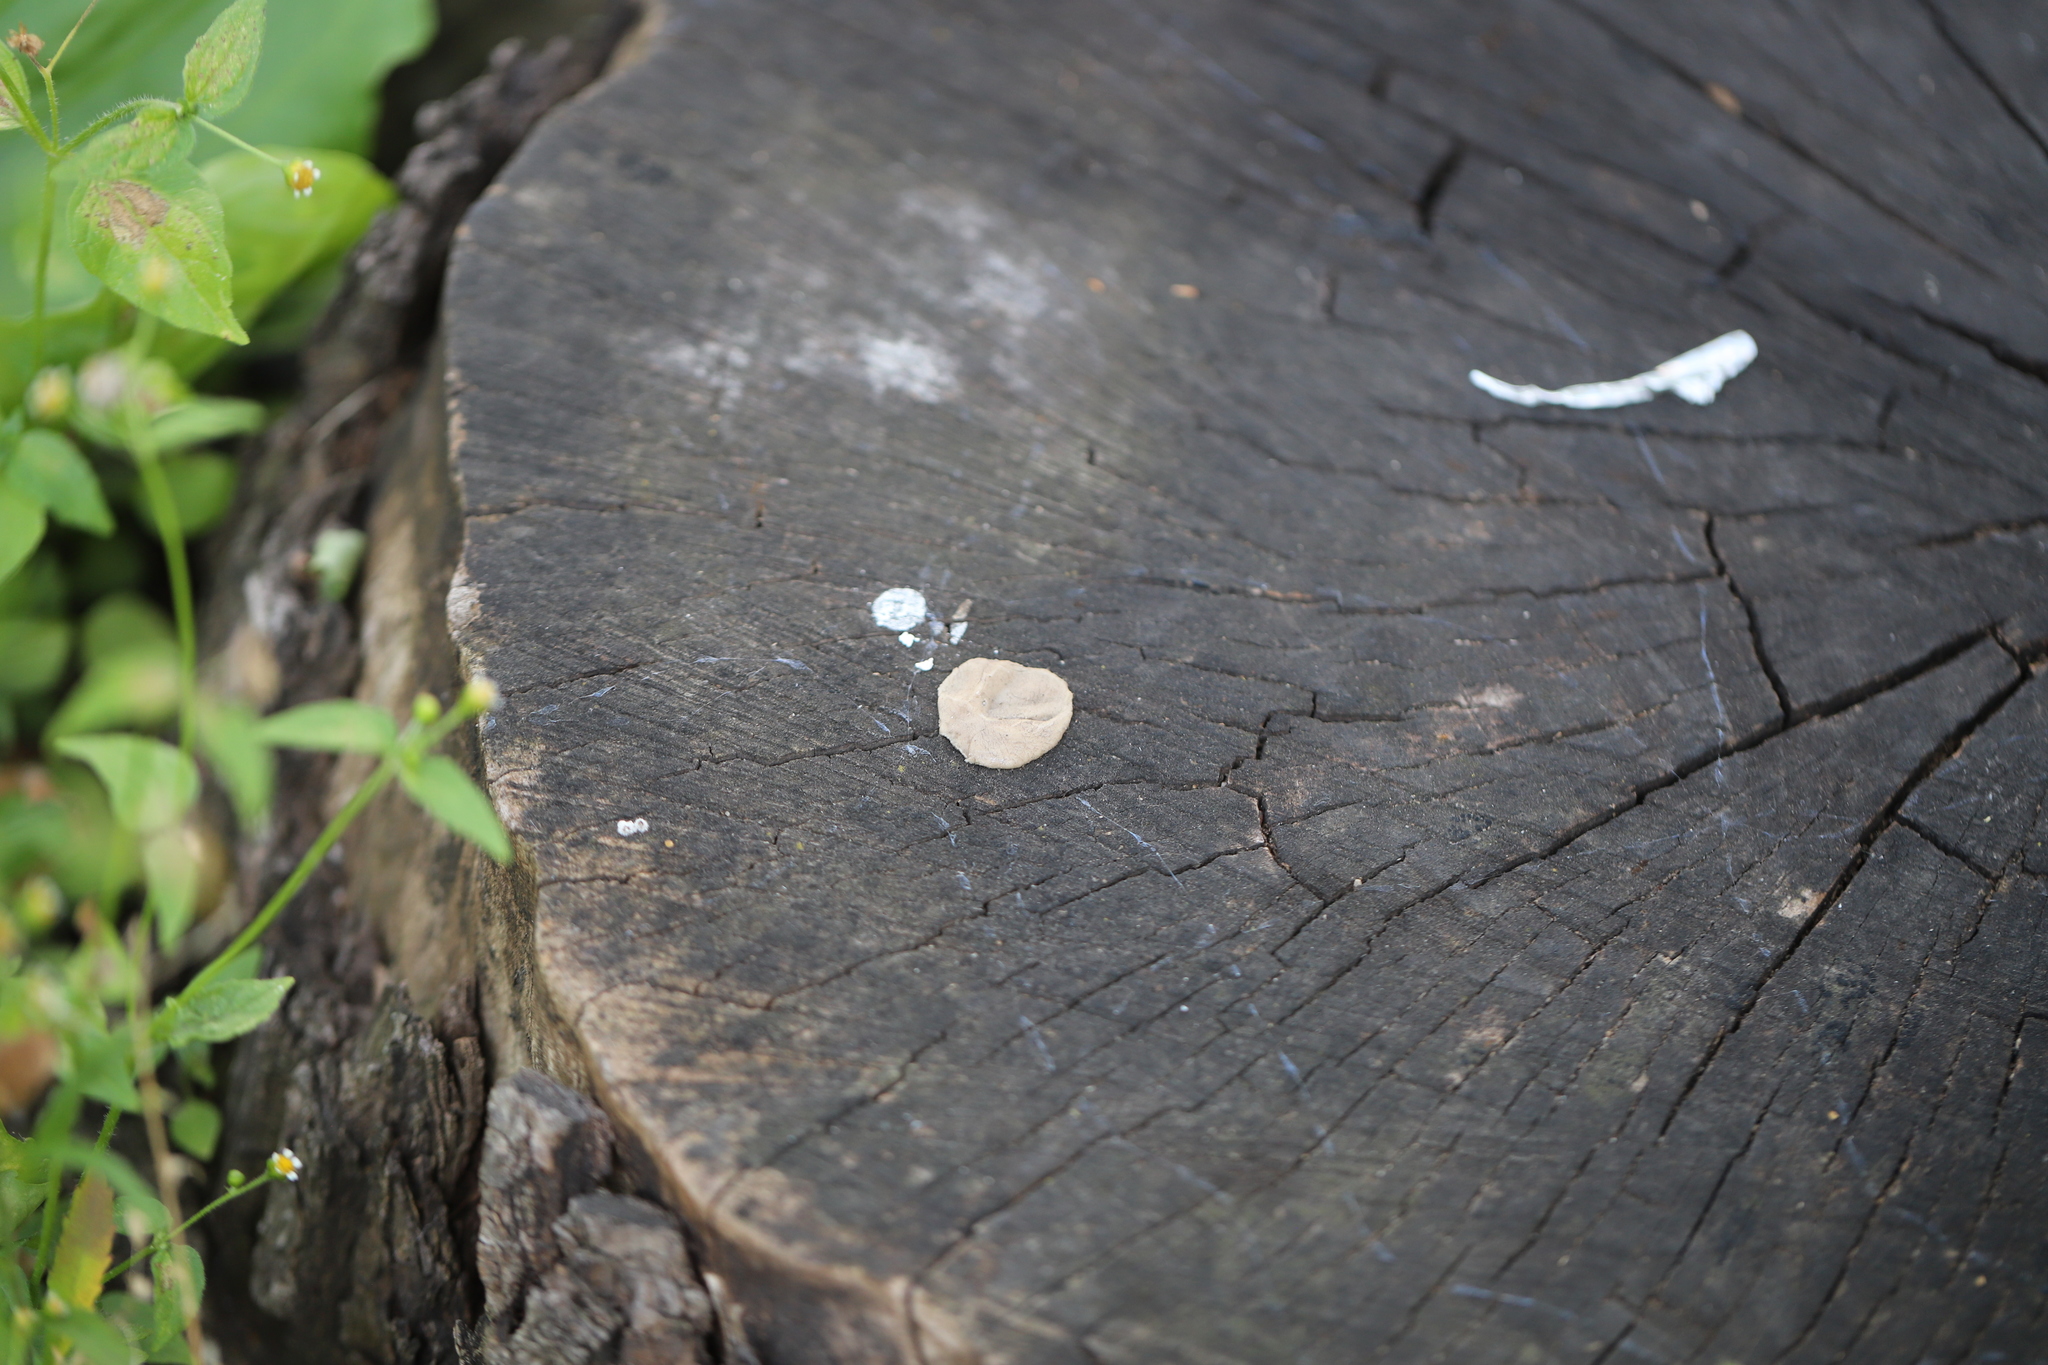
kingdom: Fungi
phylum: Basidiomycota
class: Agaricomycetes
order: Polyporales
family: Fomitopsidaceae
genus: Niveoporofomes
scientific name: Niveoporofomes spraguei
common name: Green cheese polypore
